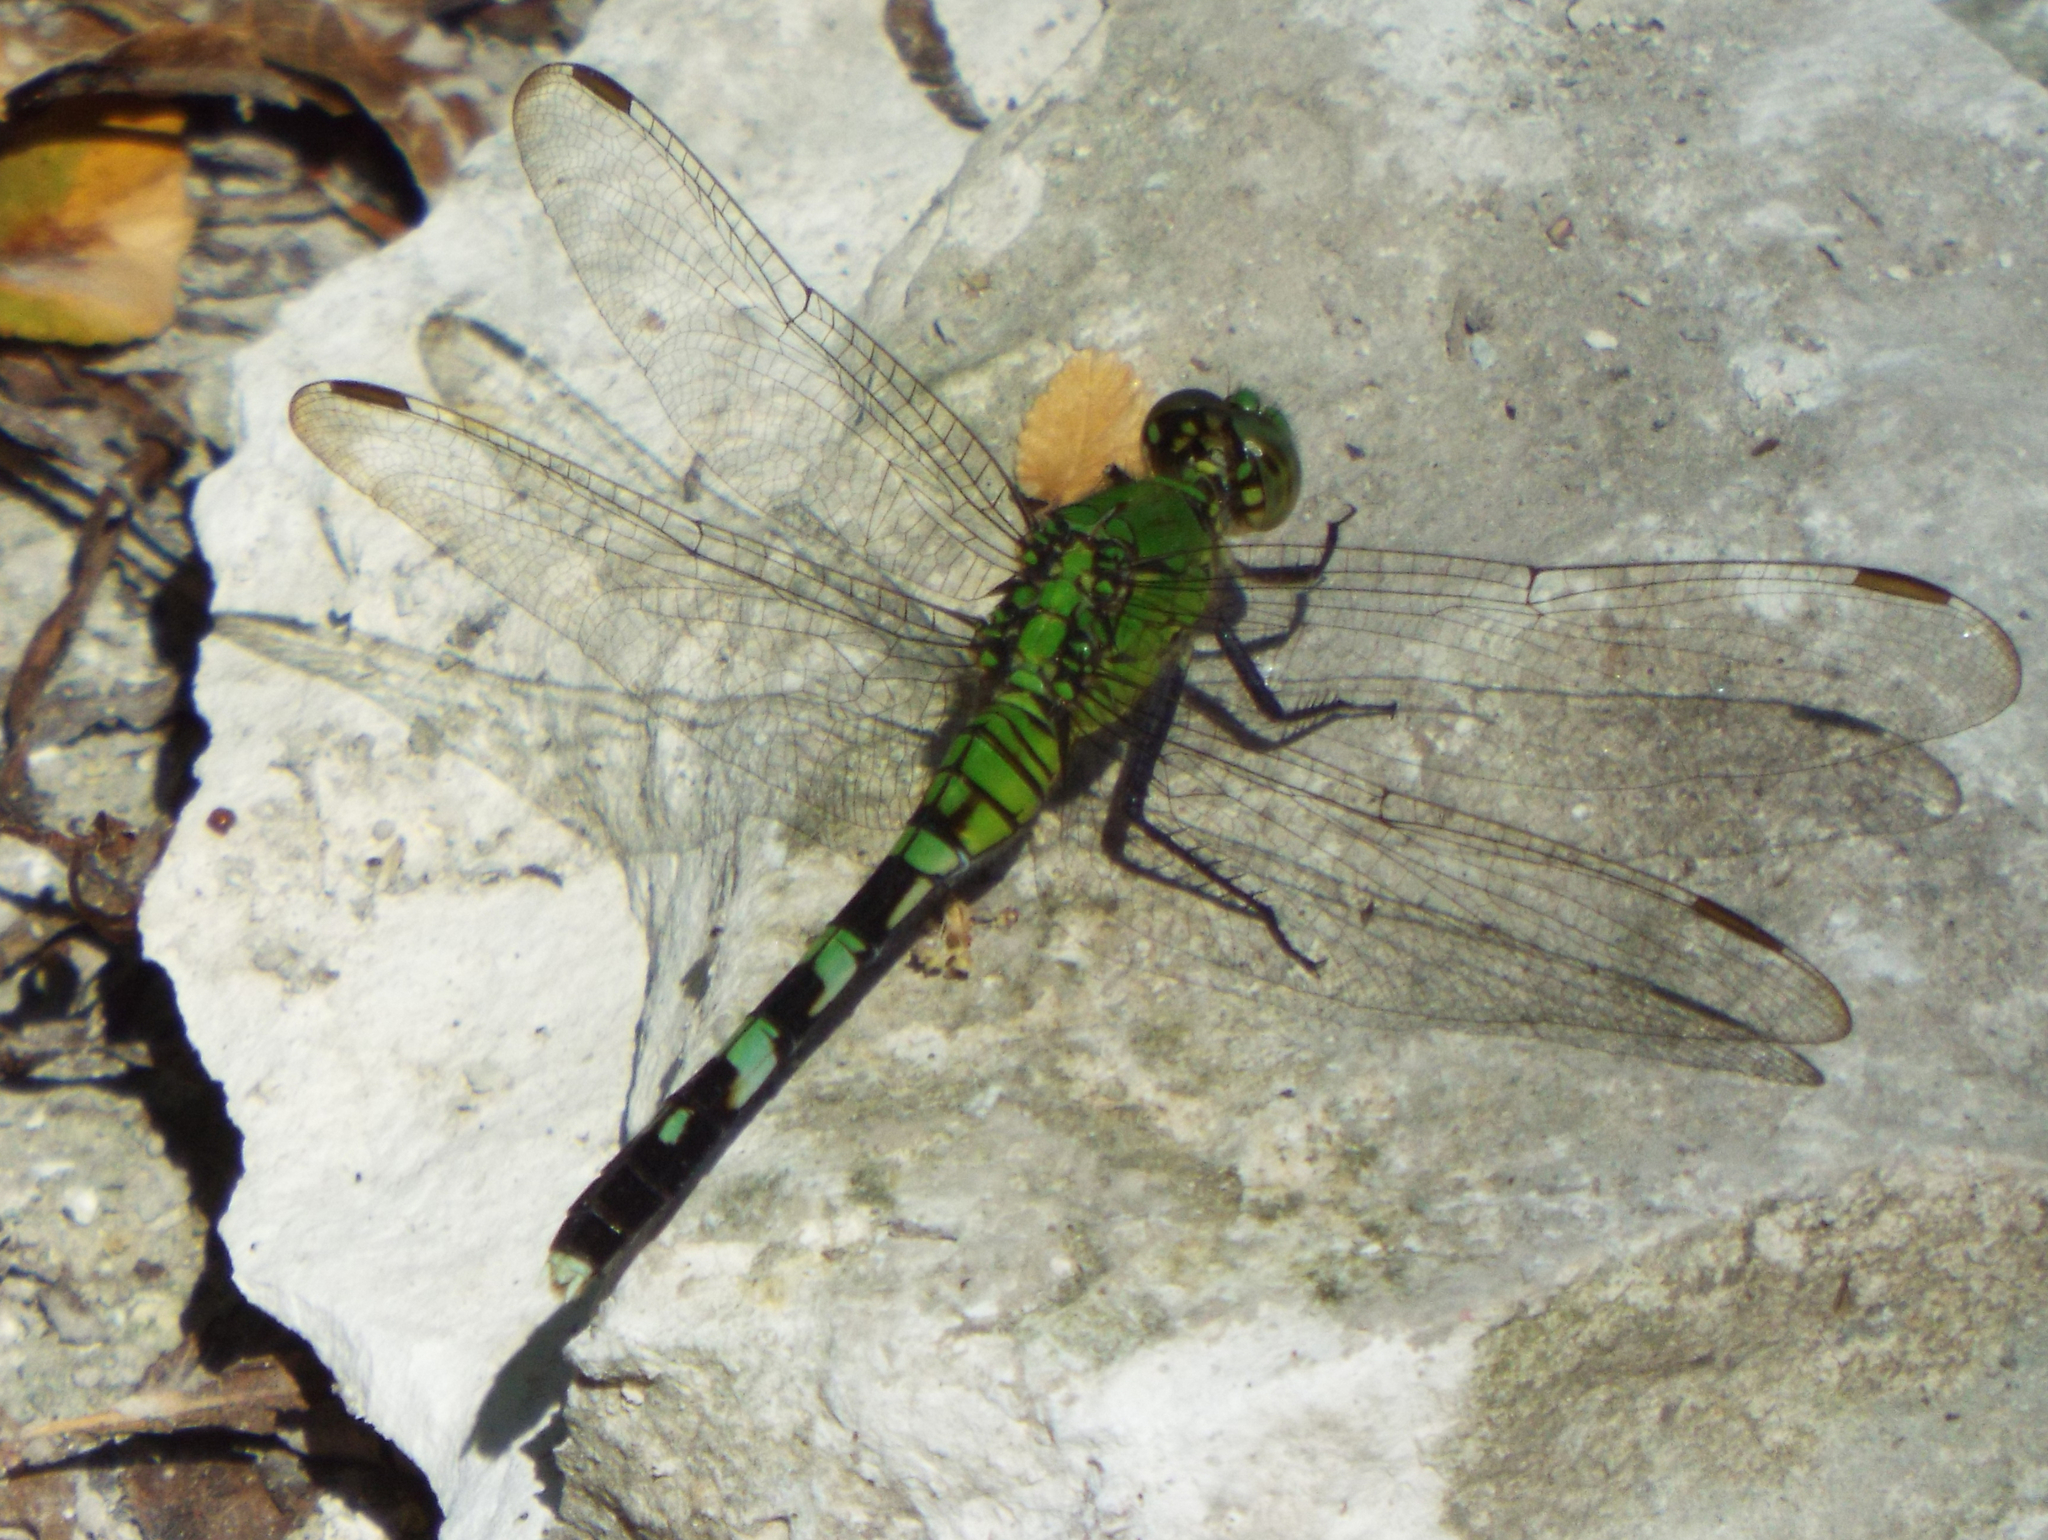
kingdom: Animalia
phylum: Arthropoda
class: Insecta
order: Odonata
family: Libellulidae
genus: Erythemis
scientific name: Erythemis simplicicollis
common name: Eastern pondhawk
